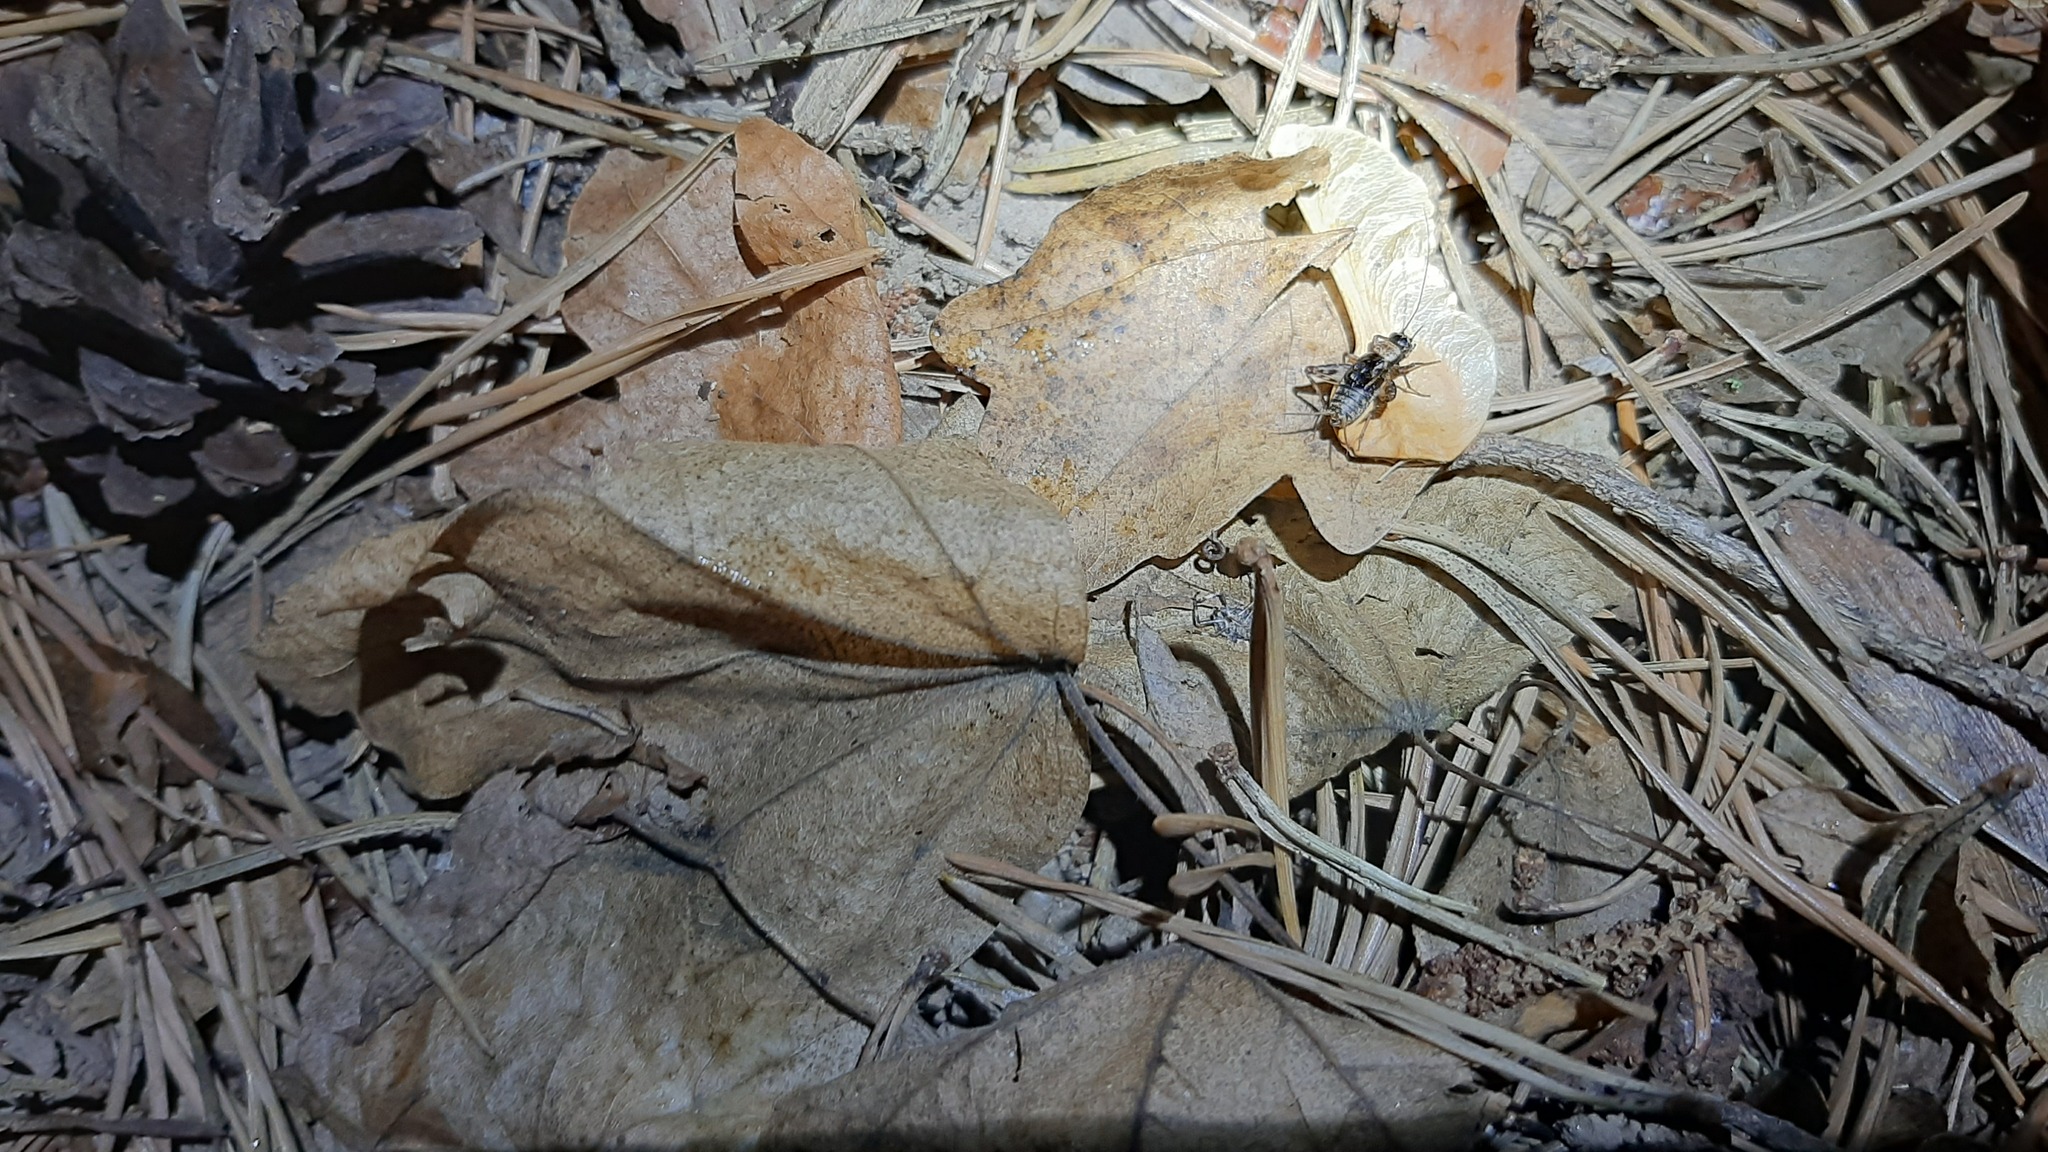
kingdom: Animalia
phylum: Arthropoda
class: Insecta
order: Orthoptera
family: Trigonidiidae
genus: Nemobius
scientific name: Nemobius sylvestris
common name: Wood-cricket
